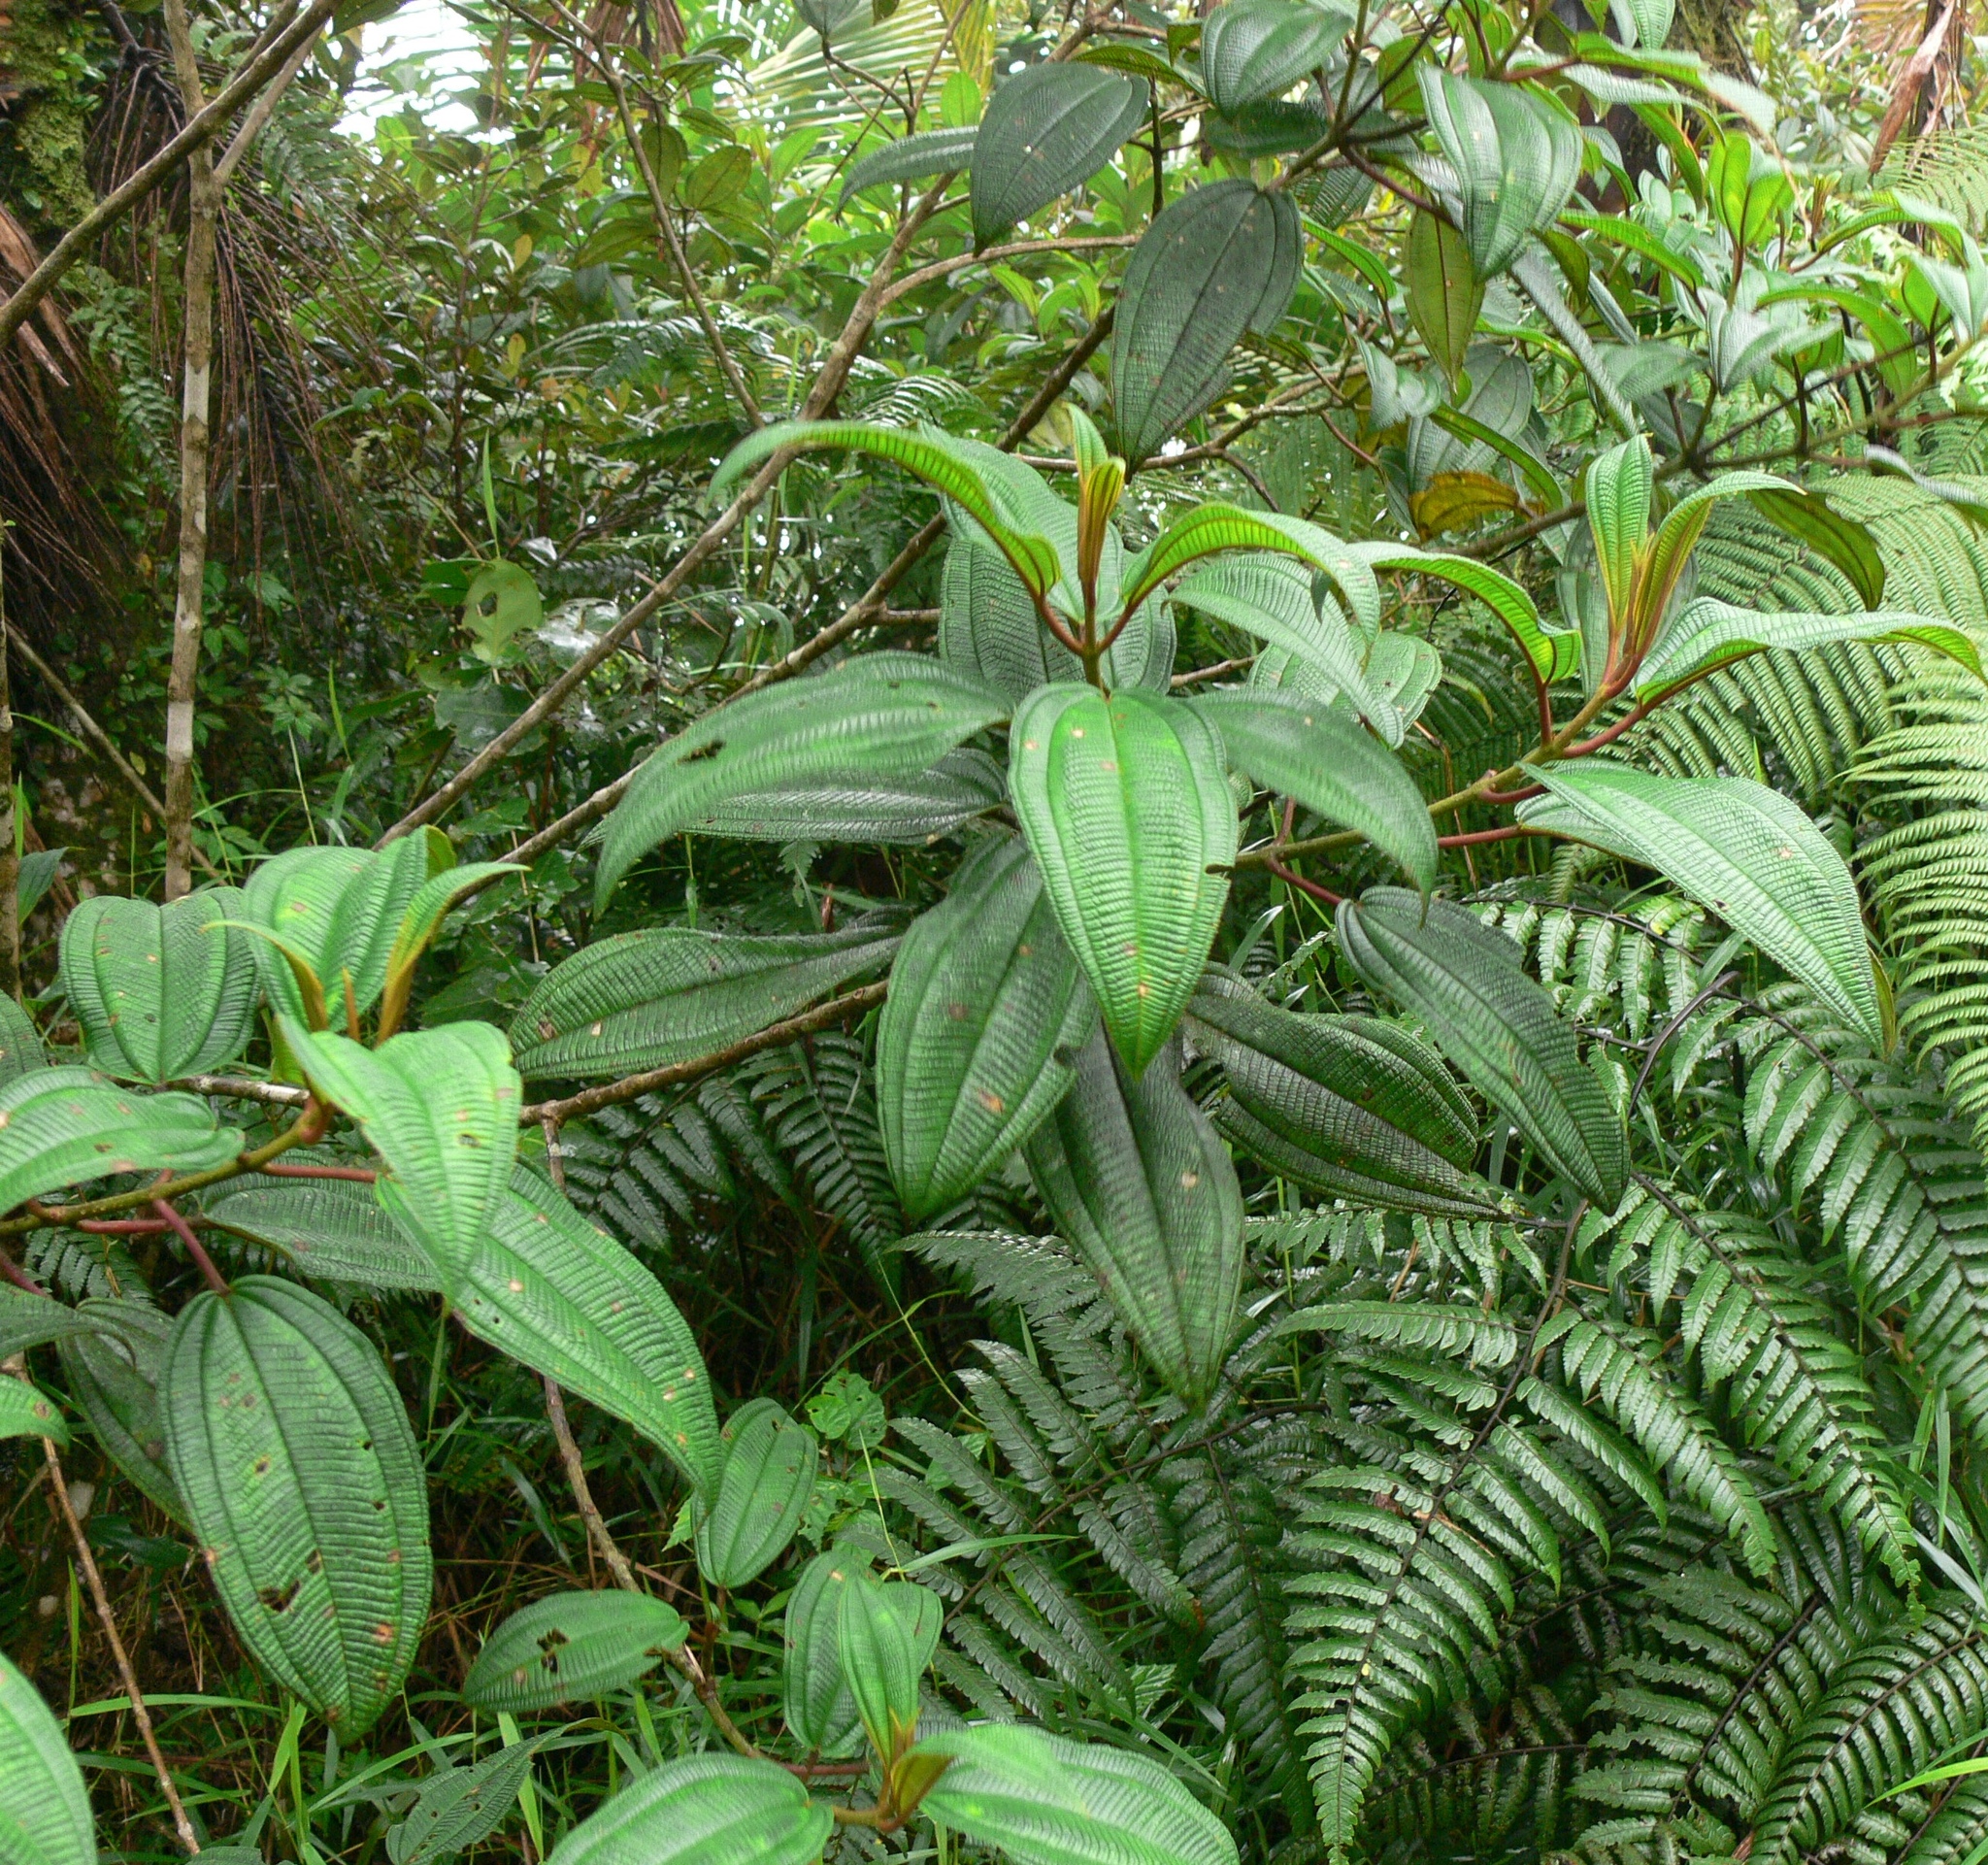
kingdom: Plantae
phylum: Tracheophyta
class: Magnoliopsida
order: Myrtales
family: Melastomataceae
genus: Miconia
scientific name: Miconia sintenisii
